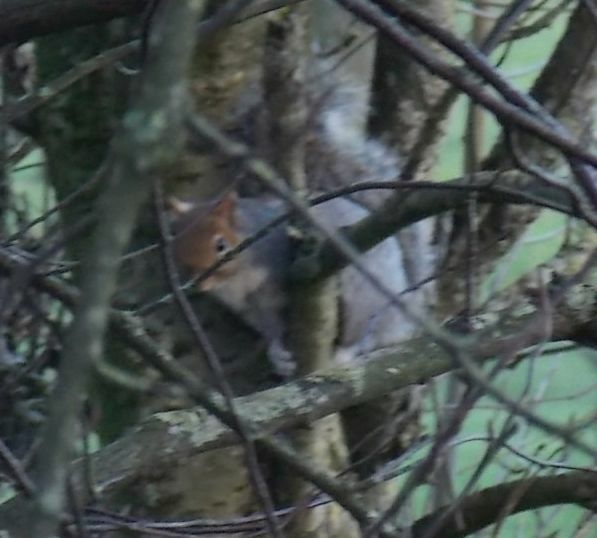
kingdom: Animalia
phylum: Chordata
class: Mammalia
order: Rodentia
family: Sciuridae
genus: Sciurus
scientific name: Sciurus carolinensis
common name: Eastern gray squirrel
